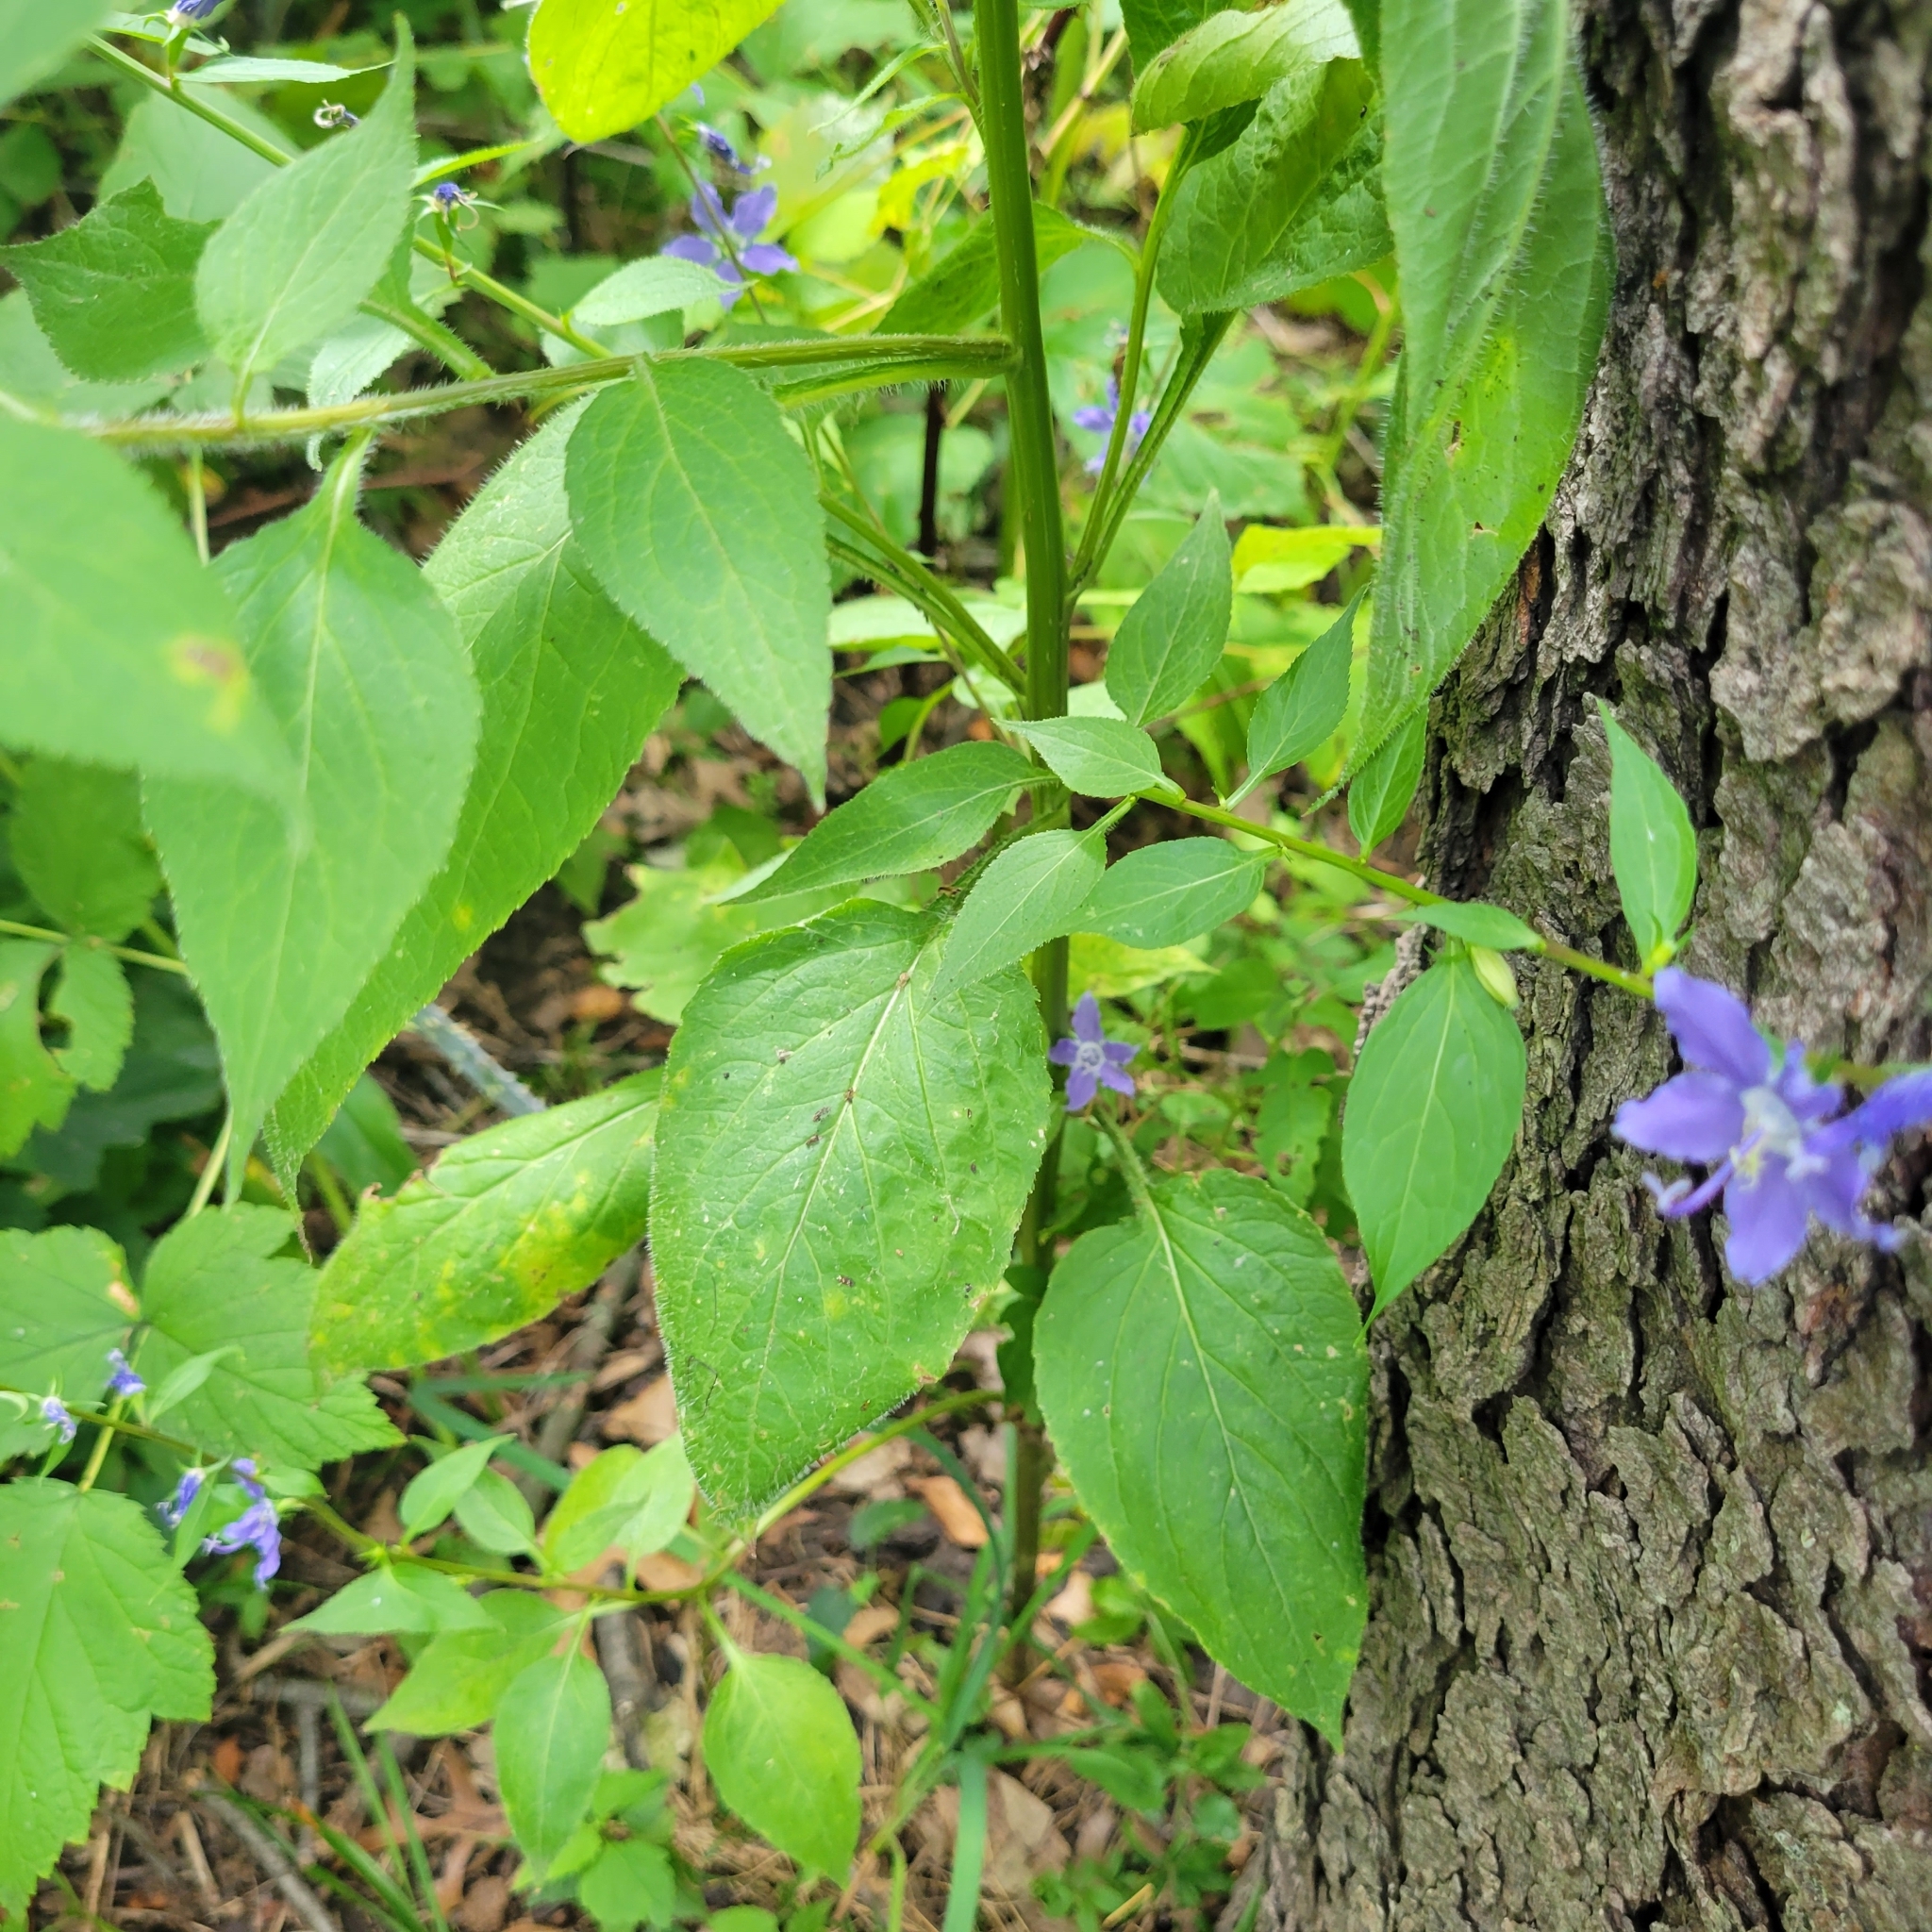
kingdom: Plantae
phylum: Tracheophyta
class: Magnoliopsida
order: Asterales
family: Campanulaceae
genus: Campanulastrum
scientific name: Campanulastrum americanum
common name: American bellflower
